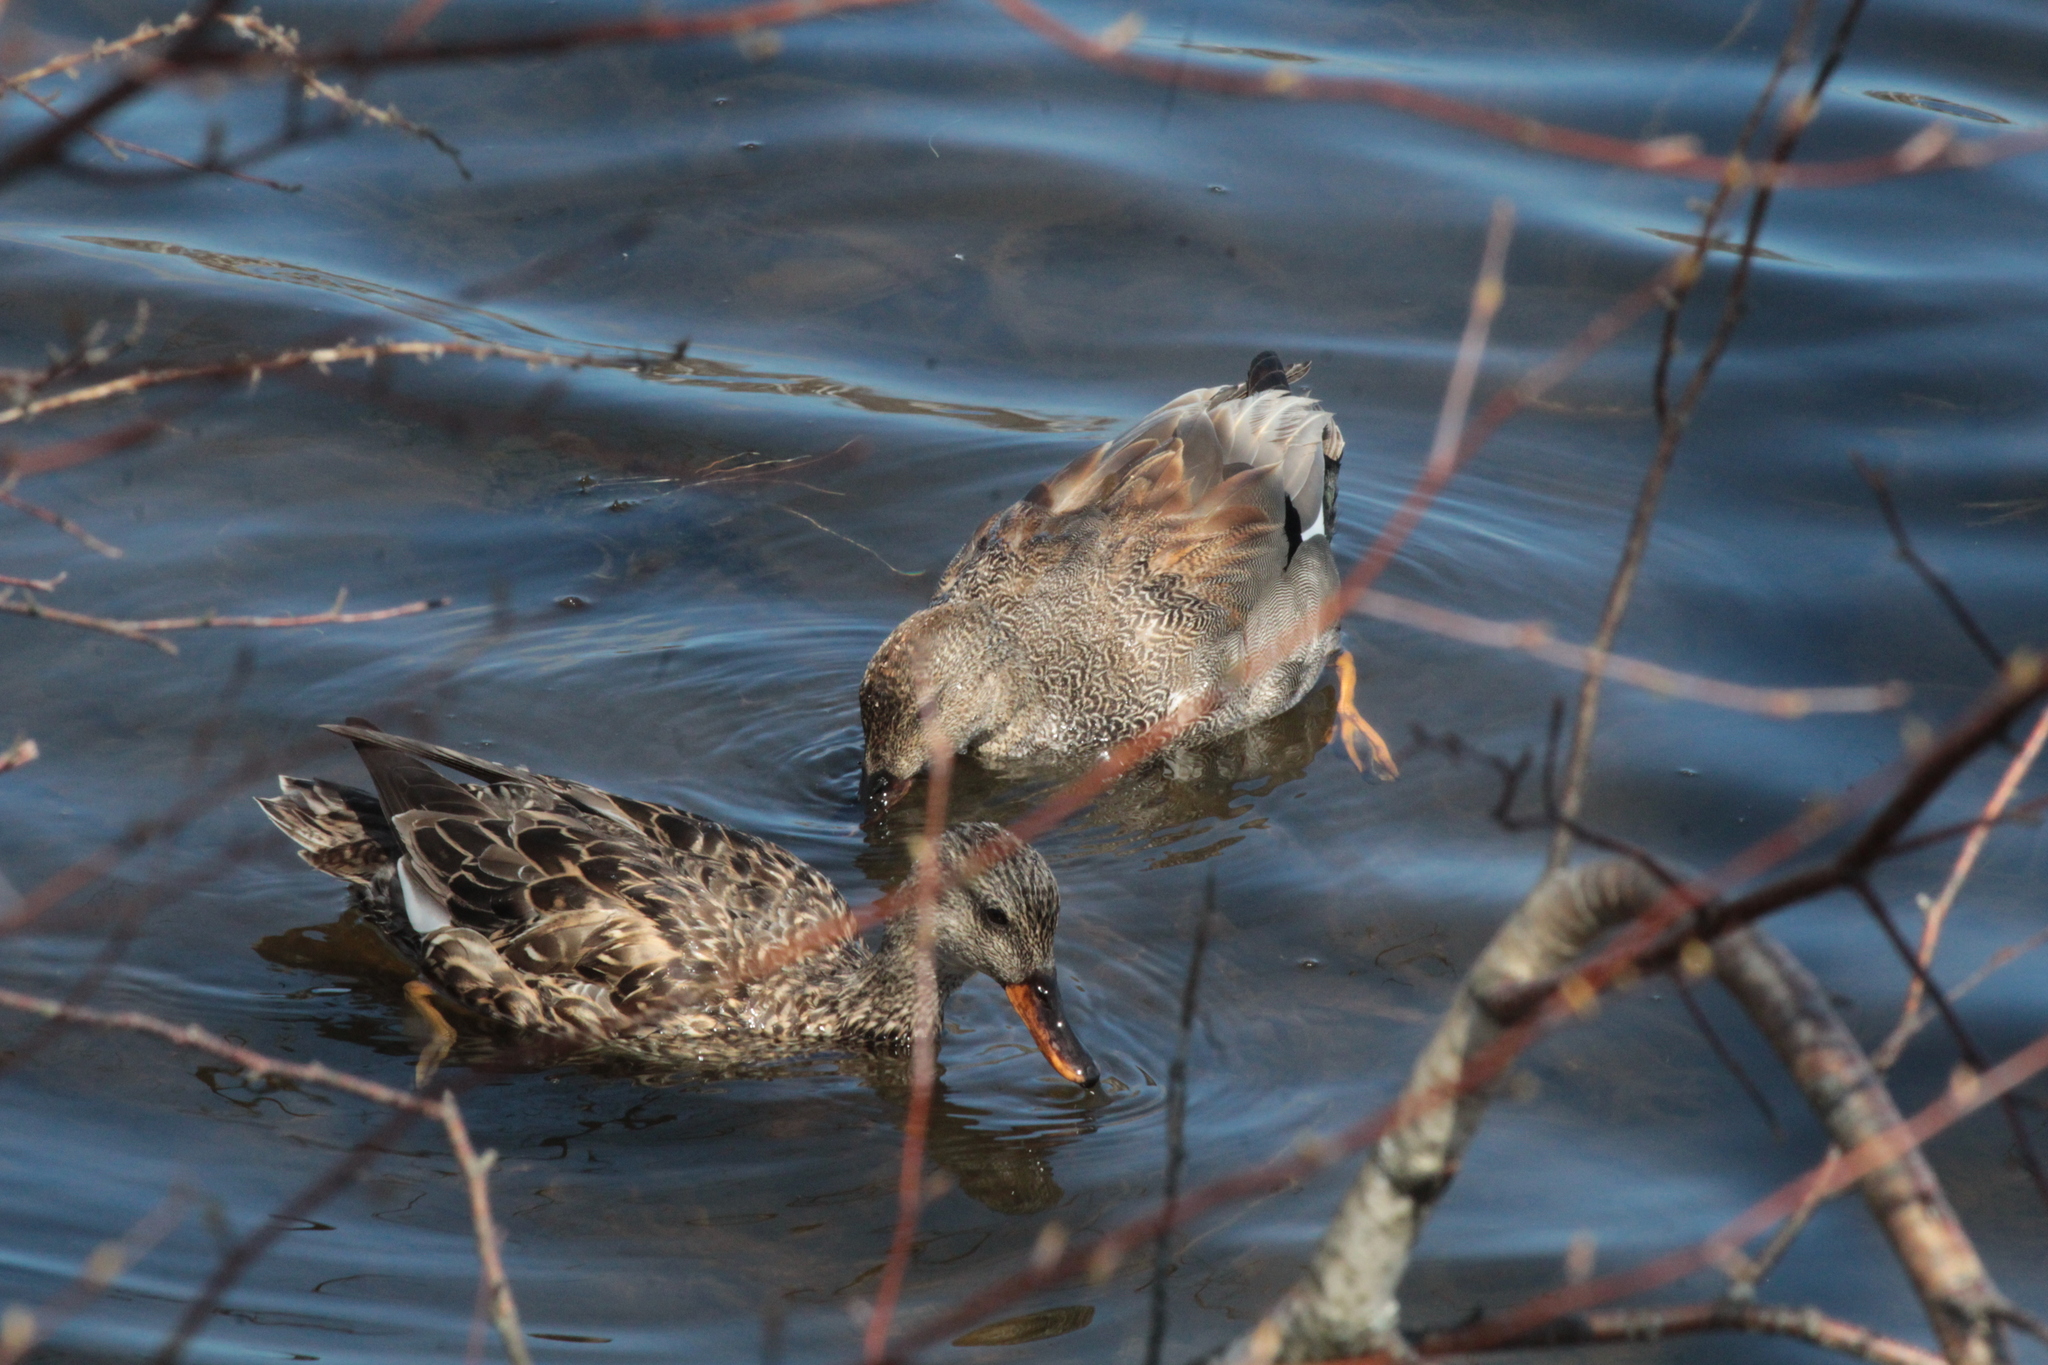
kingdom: Animalia
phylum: Chordata
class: Aves
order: Anseriformes
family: Anatidae
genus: Mareca
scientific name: Mareca strepera
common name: Gadwall
